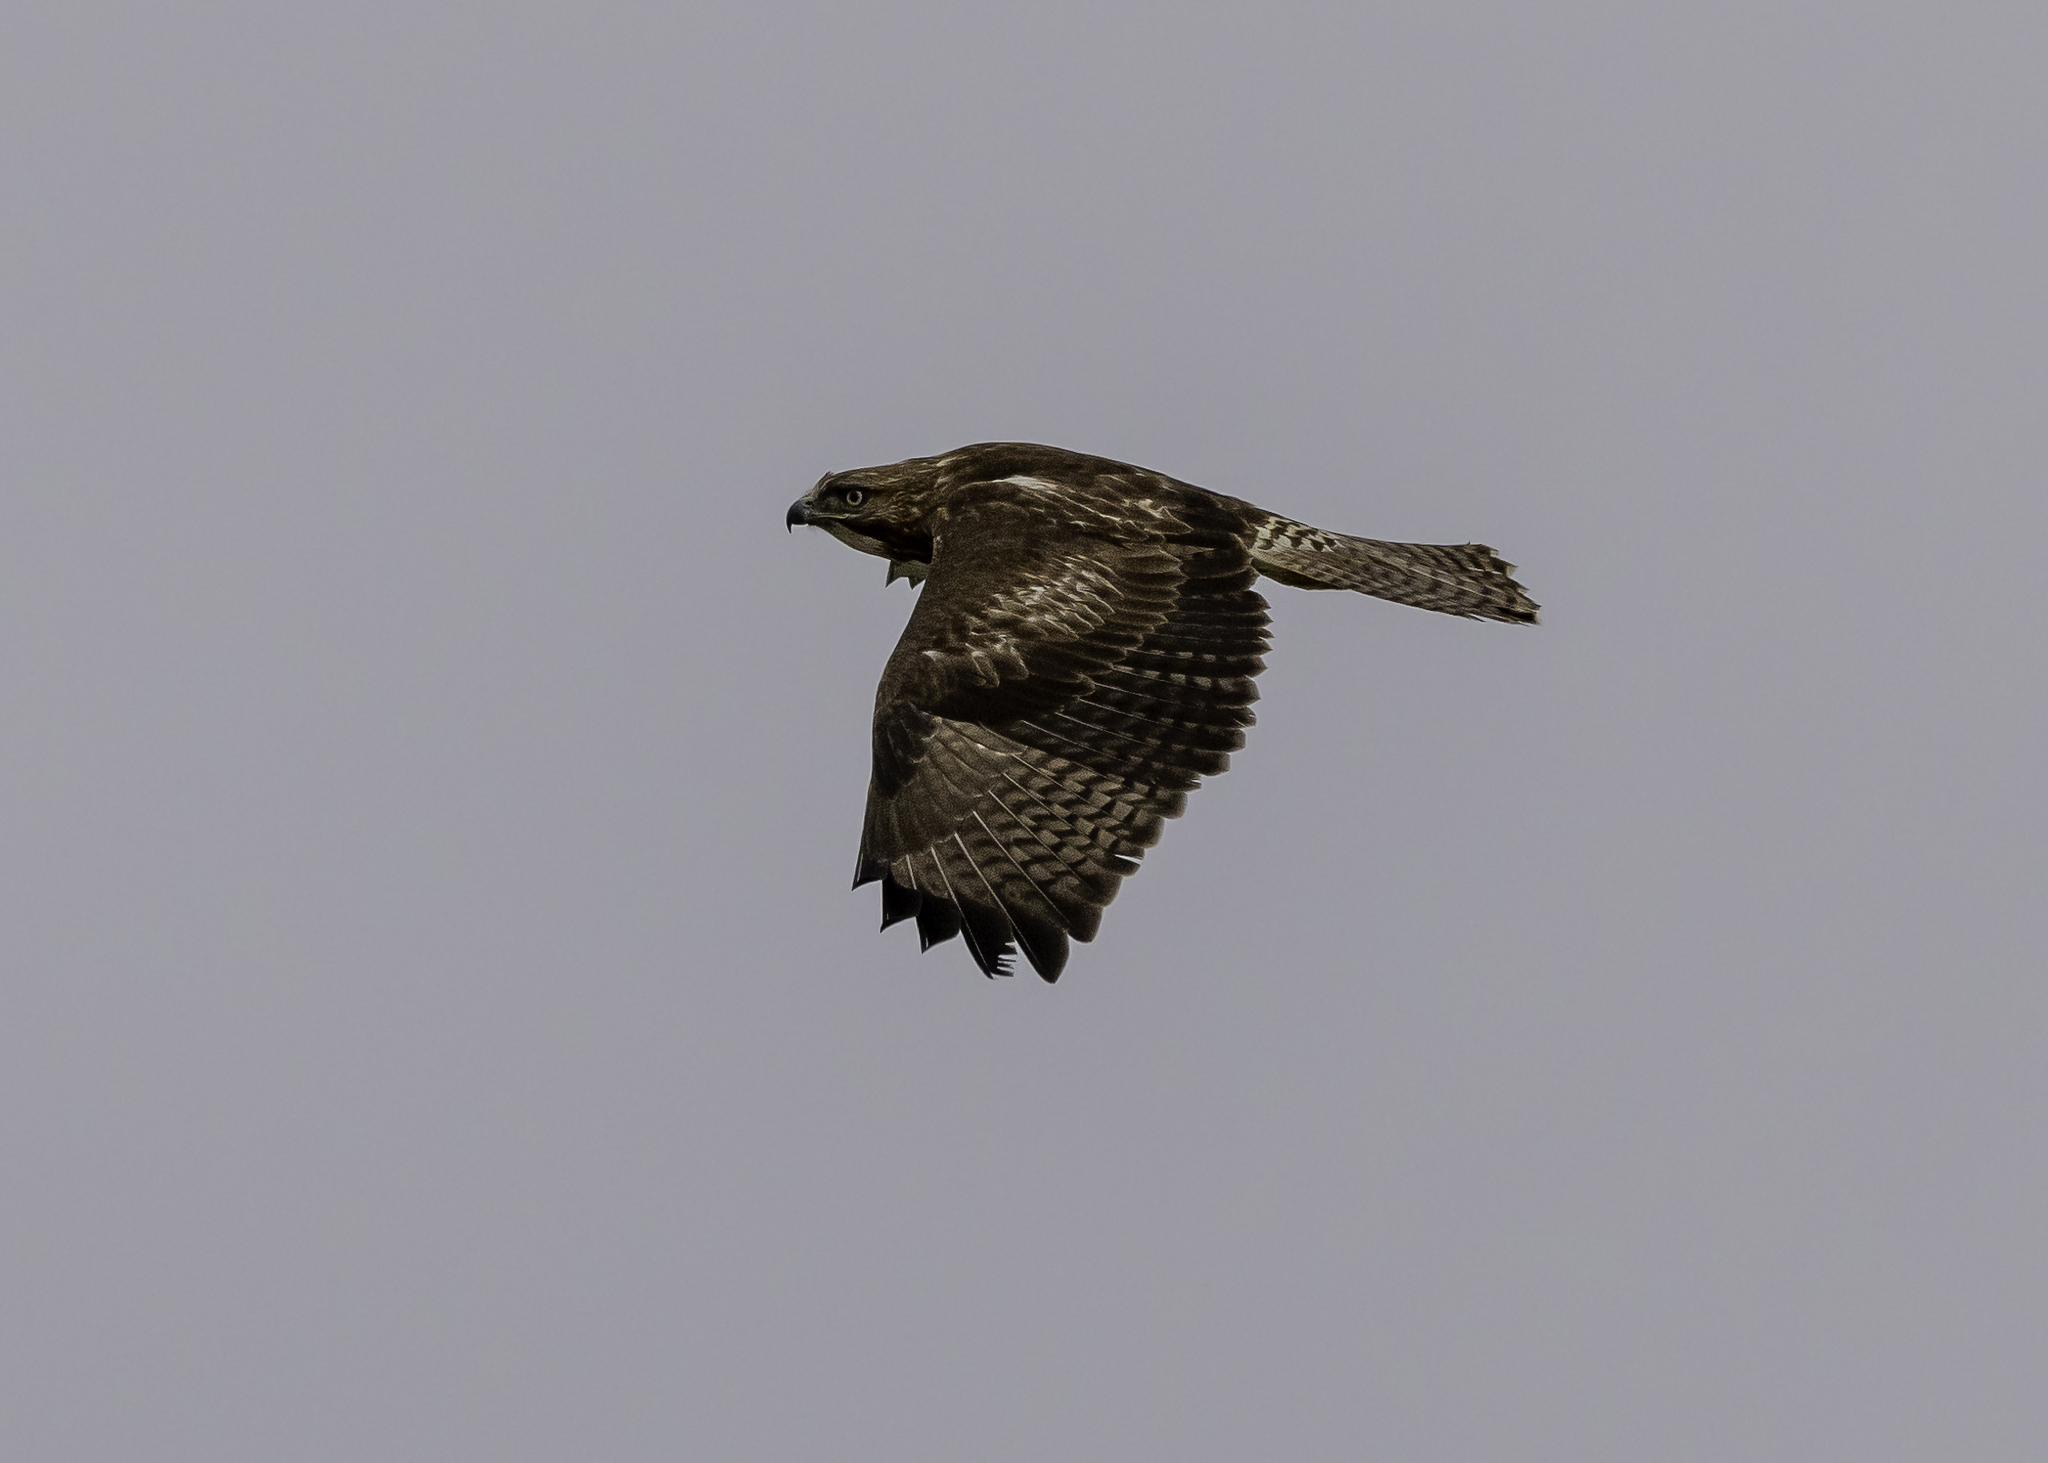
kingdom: Animalia
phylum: Chordata
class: Aves
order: Accipitriformes
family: Accipitridae
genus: Buteo
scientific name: Buteo jamaicensis
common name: Red-tailed hawk
